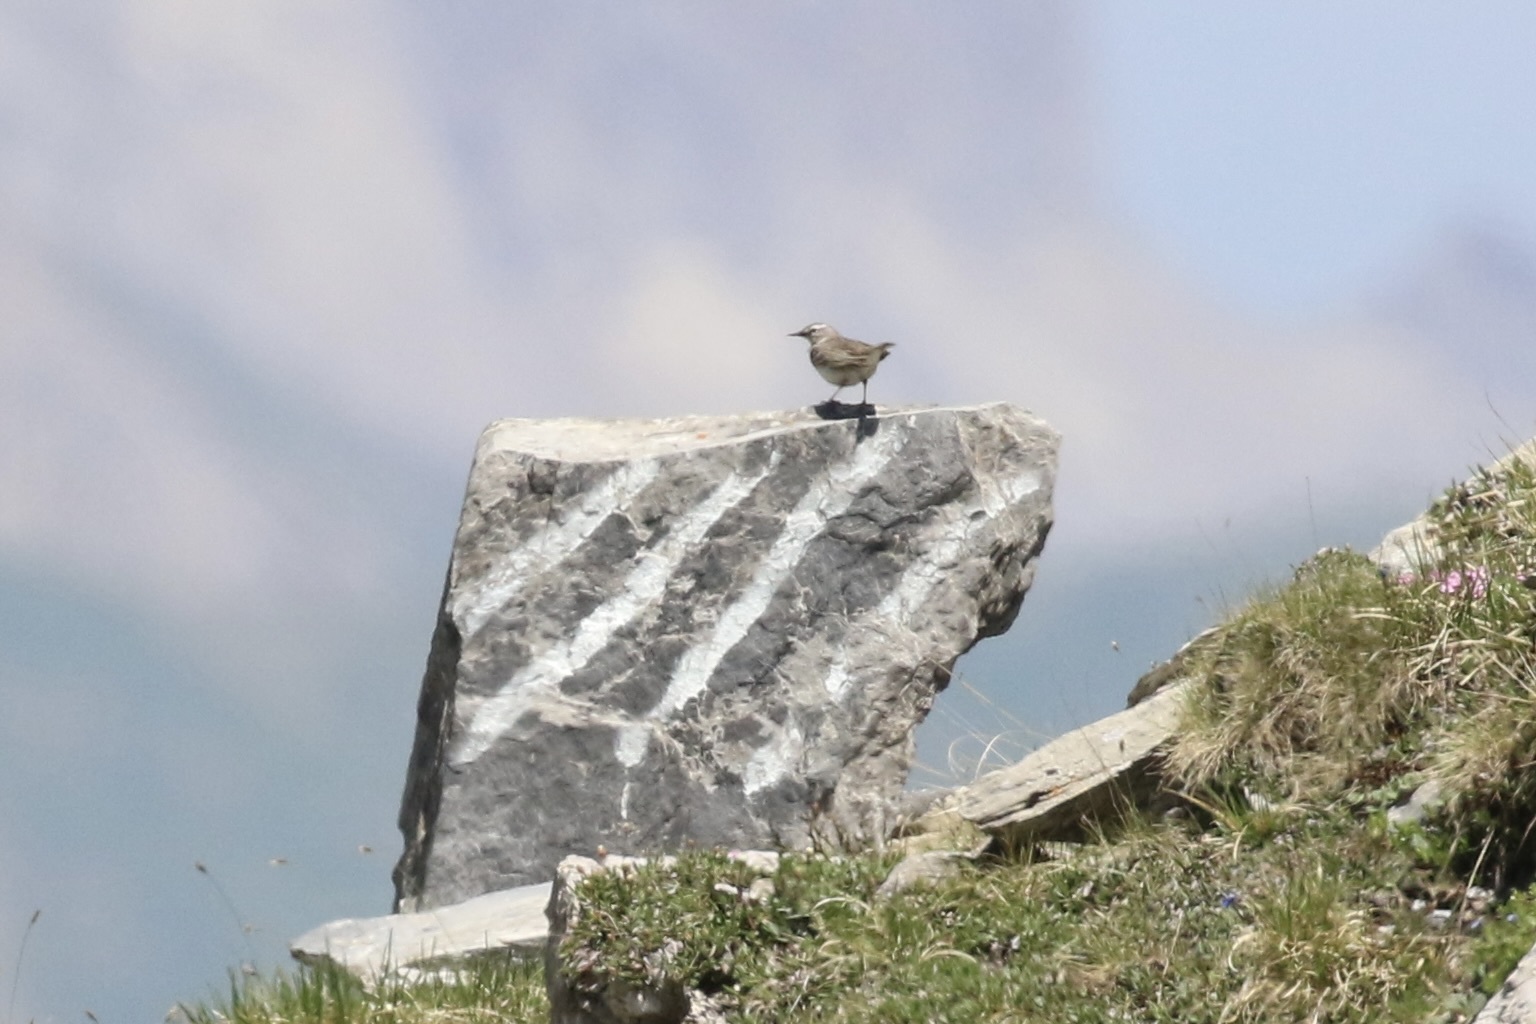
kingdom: Animalia
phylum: Chordata
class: Aves
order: Passeriformes
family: Motacillidae
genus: Anthus
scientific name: Anthus spinoletta
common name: Water pipit
